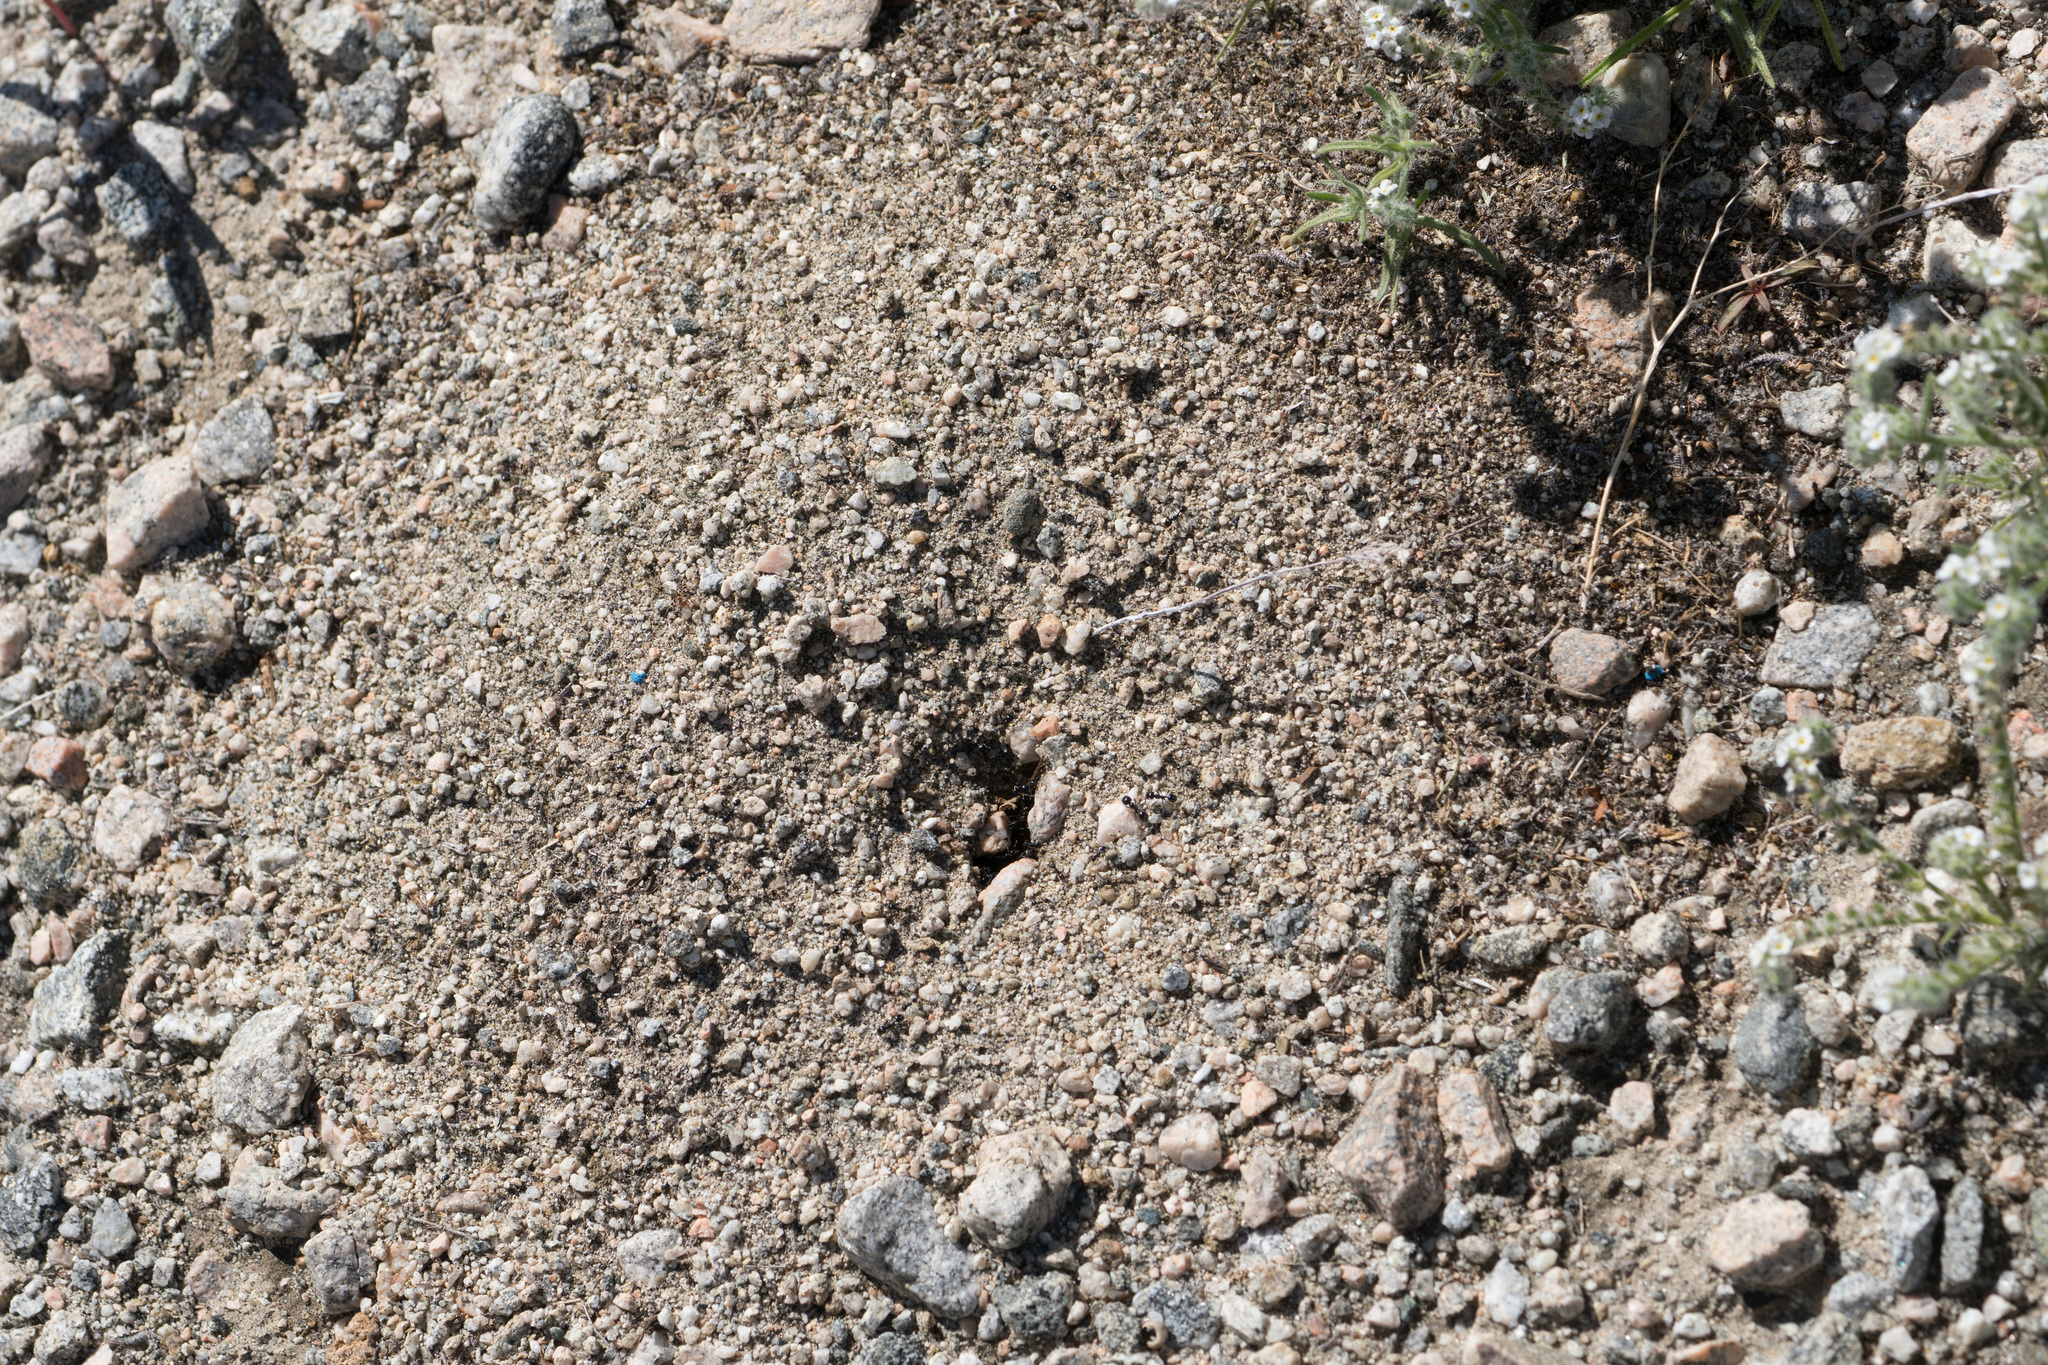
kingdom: Animalia
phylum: Arthropoda
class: Insecta
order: Hymenoptera
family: Formicidae
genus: Messor
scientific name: Messor pergandei
